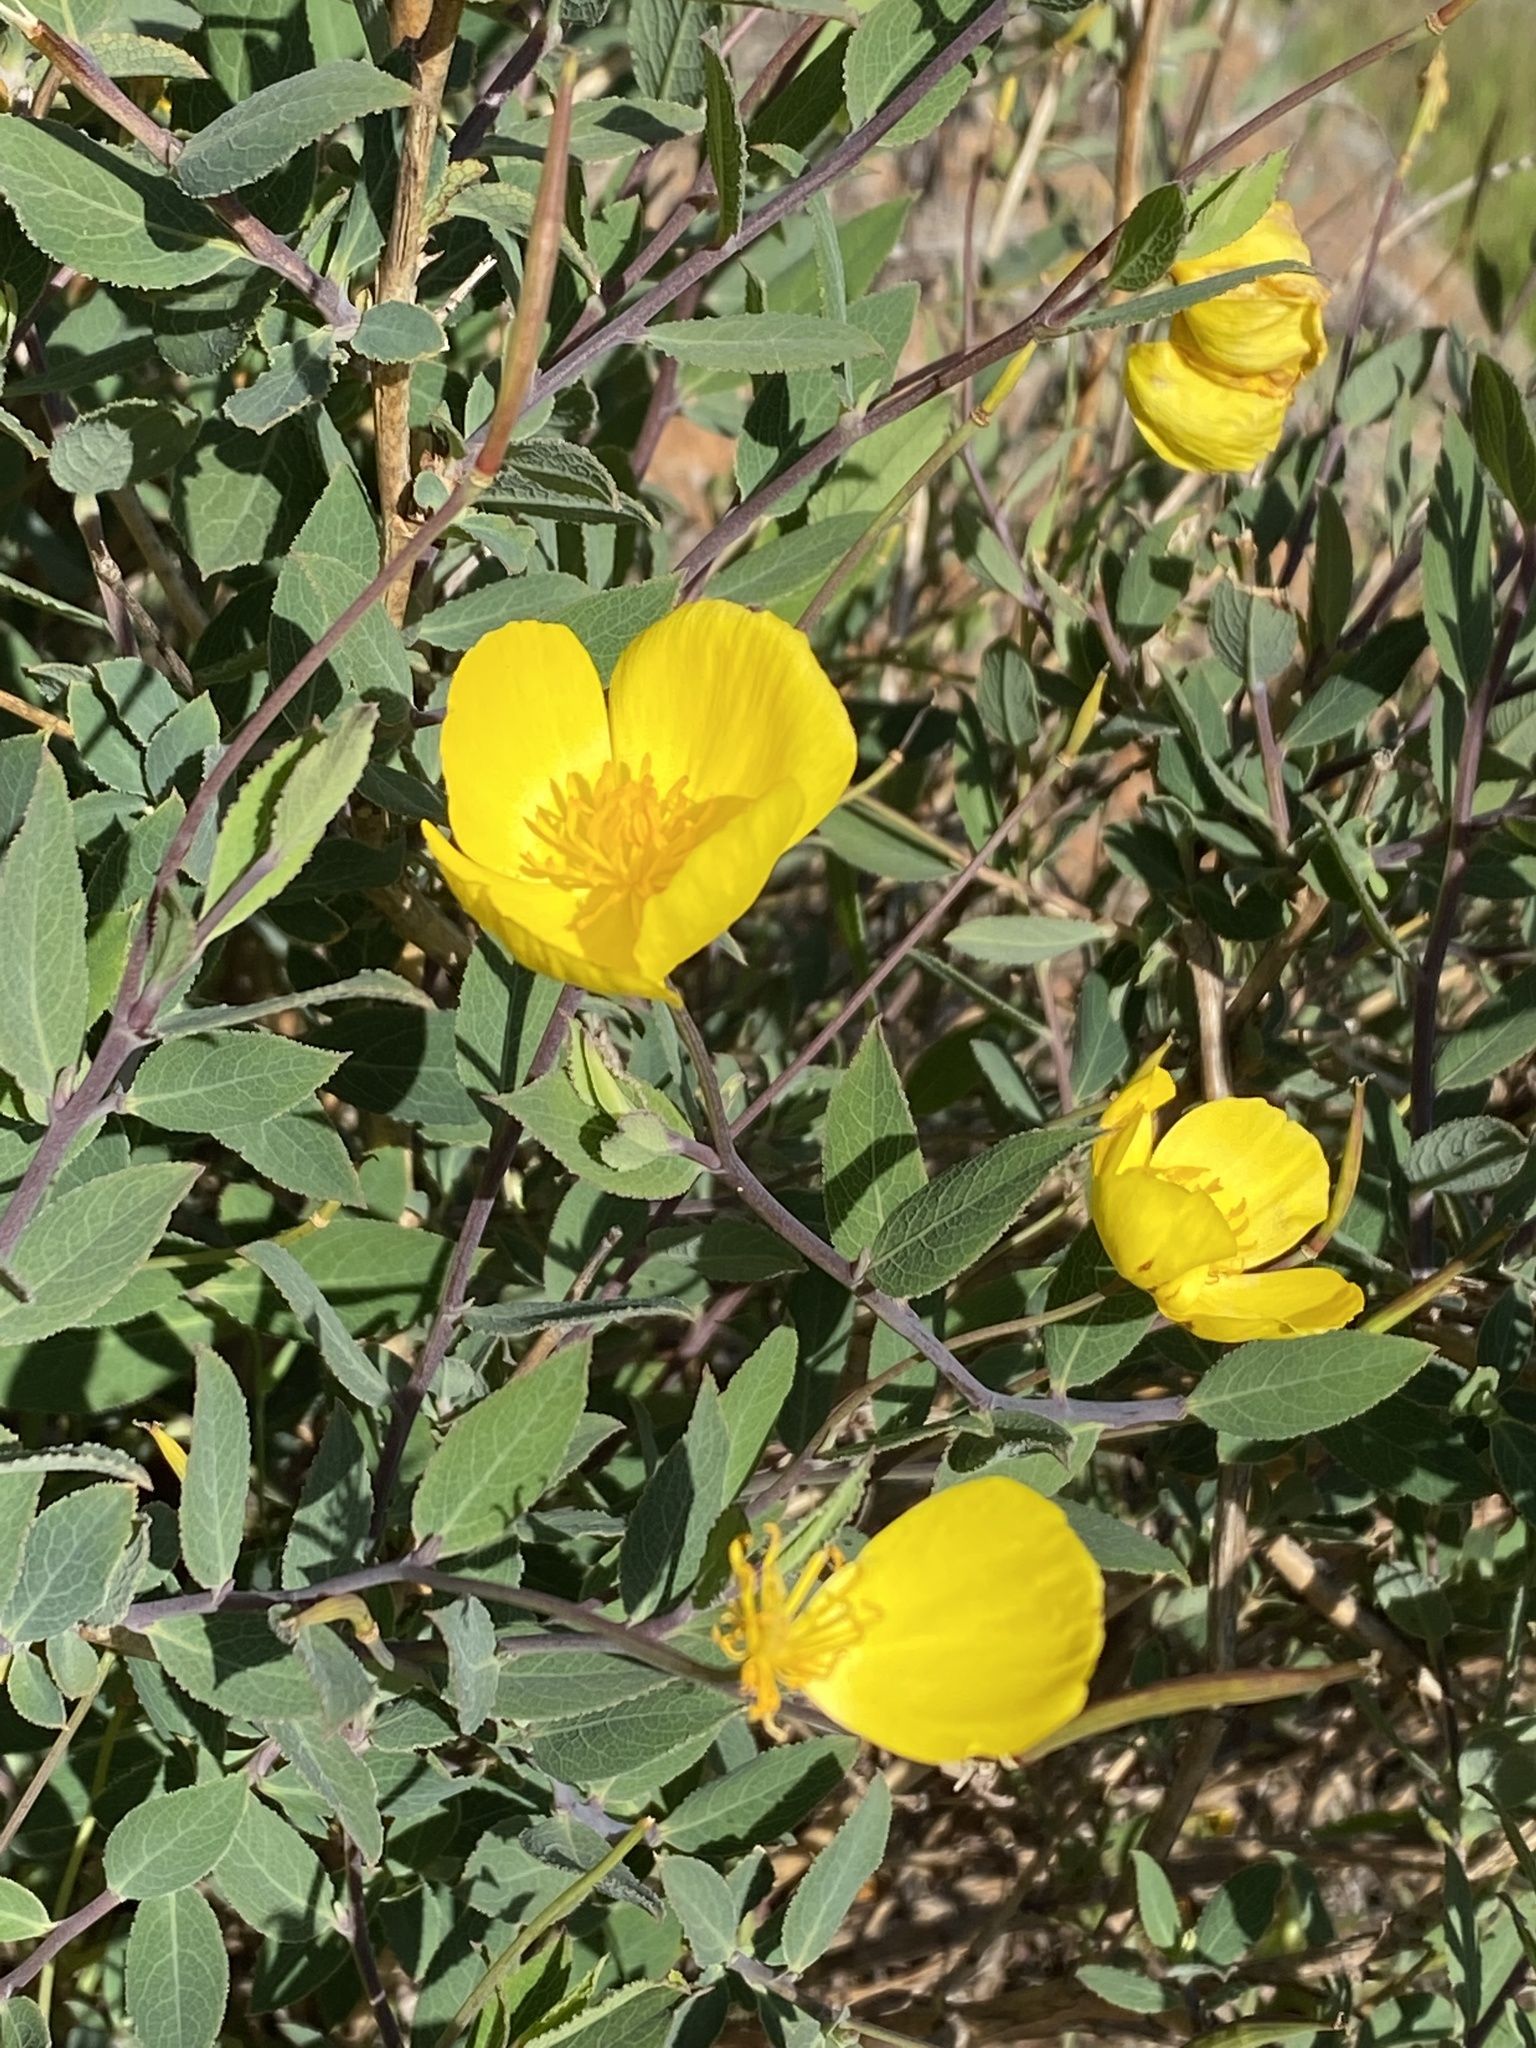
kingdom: Plantae
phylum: Tracheophyta
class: Magnoliopsida
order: Ranunculales
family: Papaveraceae
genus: Dendromecon
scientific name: Dendromecon rigida
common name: Tree poppy
